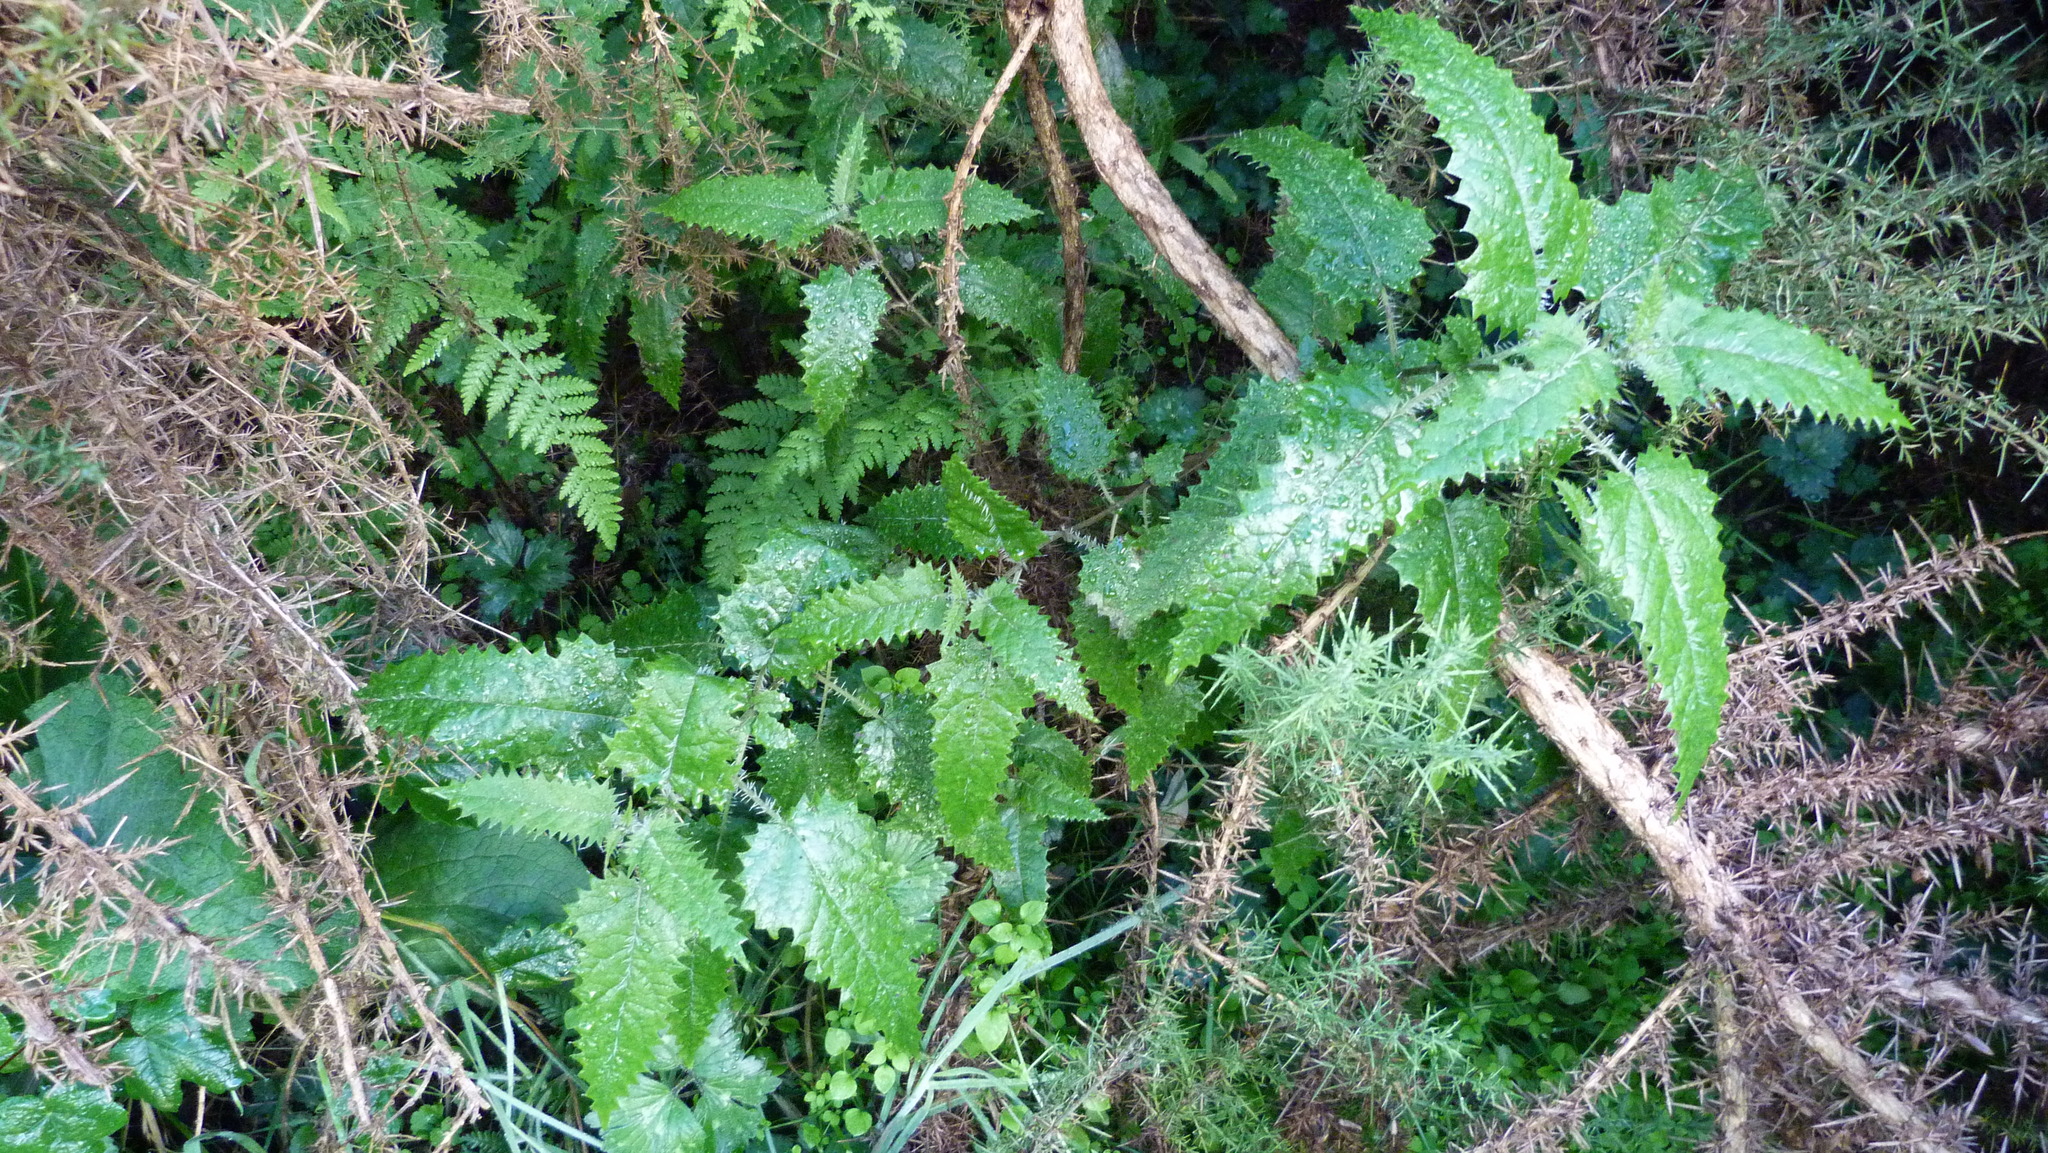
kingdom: Plantae
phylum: Tracheophyta
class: Magnoliopsida
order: Rosales
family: Urticaceae
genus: Urtica
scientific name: Urtica ferox
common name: Tree nettle
